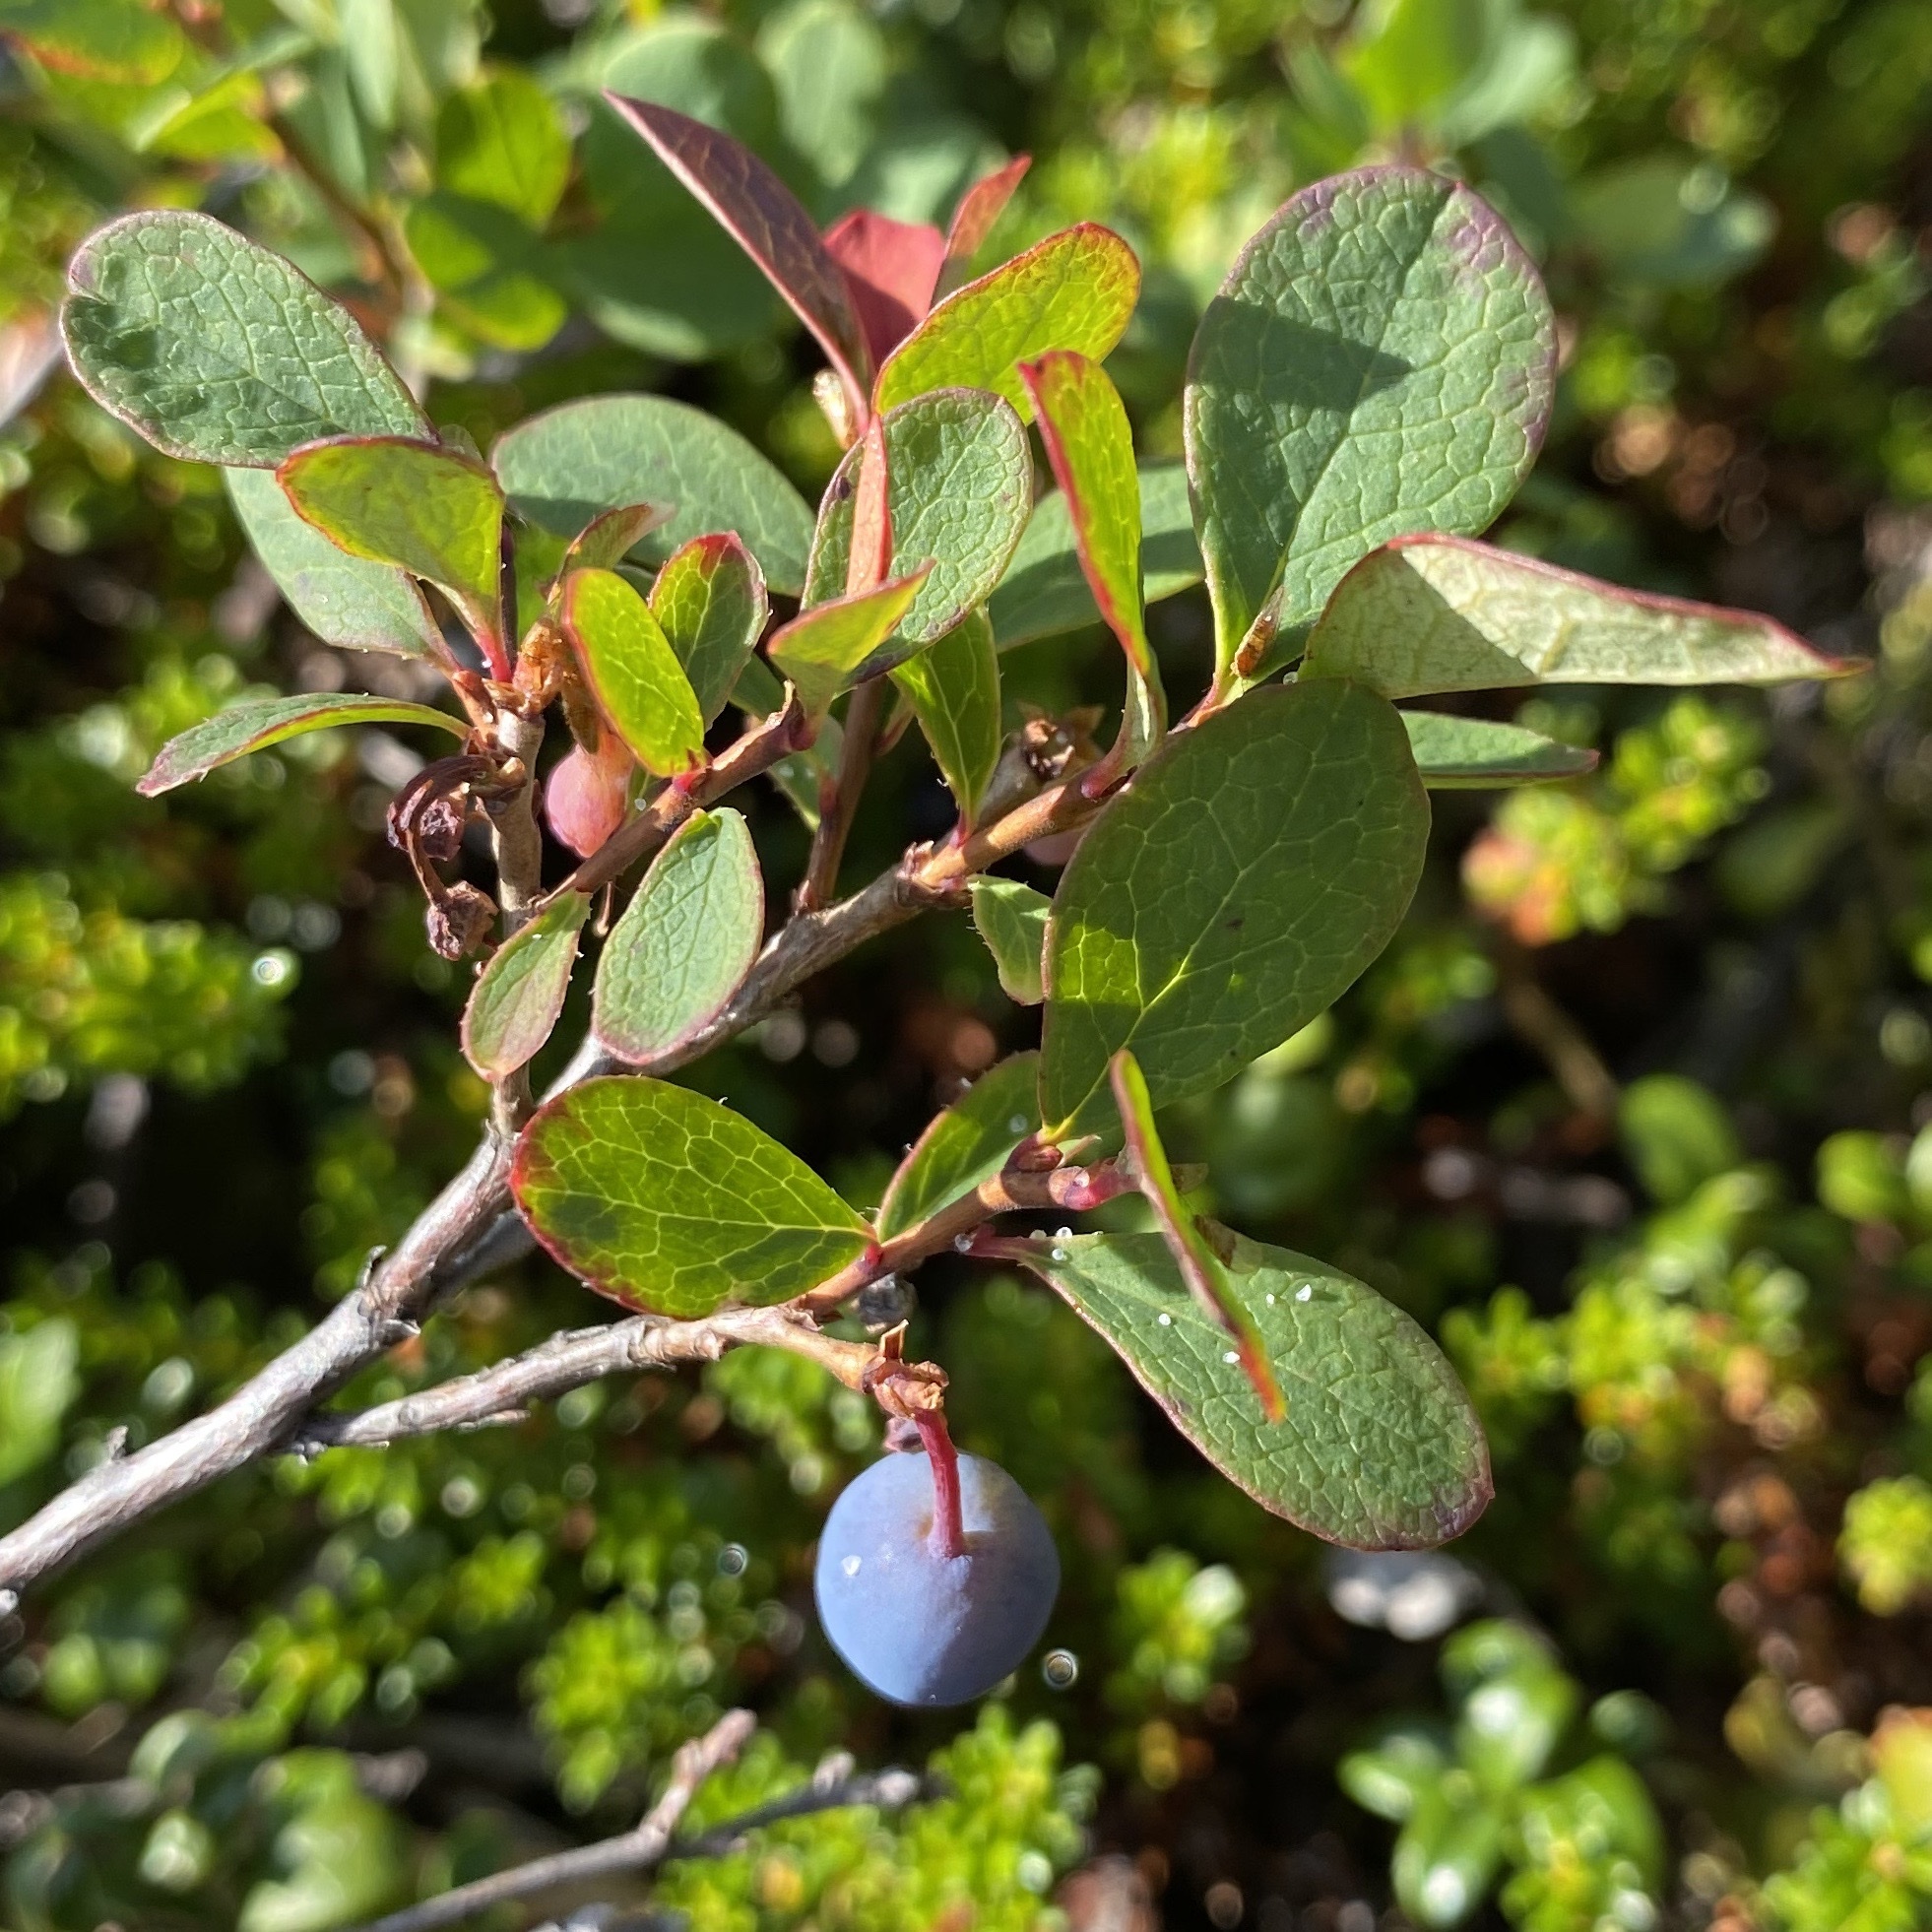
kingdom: Plantae
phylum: Tracheophyta
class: Magnoliopsida
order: Ericales
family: Ericaceae
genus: Vaccinium
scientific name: Vaccinium uliginosum
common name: Bog bilberry
